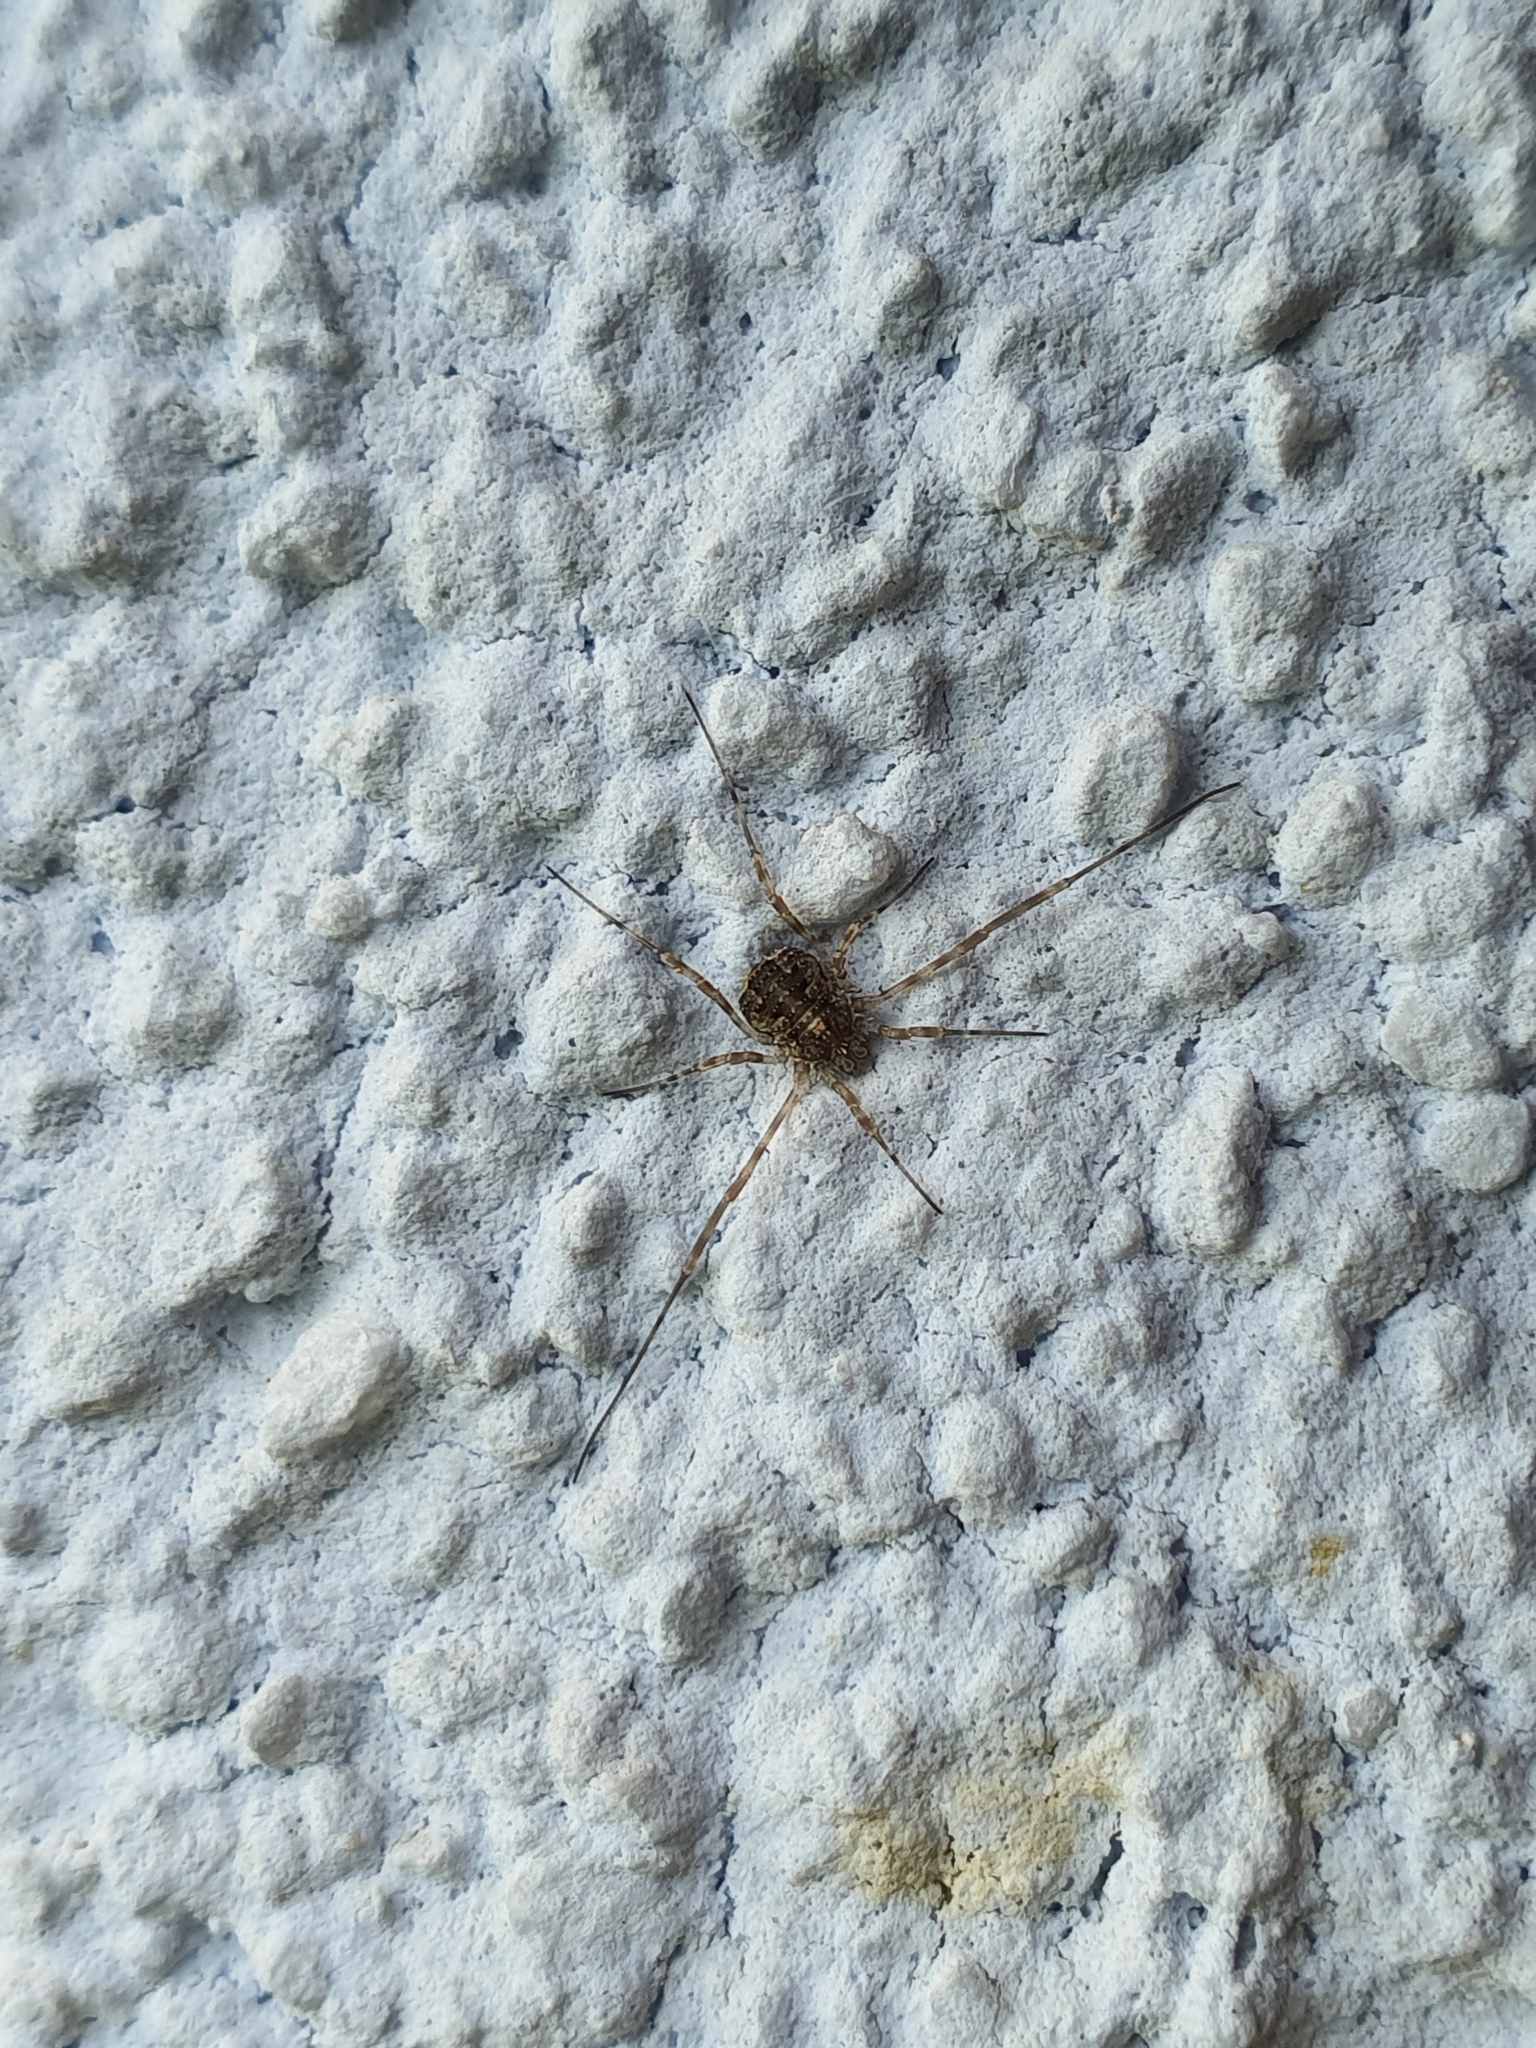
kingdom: Animalia
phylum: Arthropoda
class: Arachnida
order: Opiliones
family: Phalangiidae
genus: Lacinius
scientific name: Lacinius dentiger
